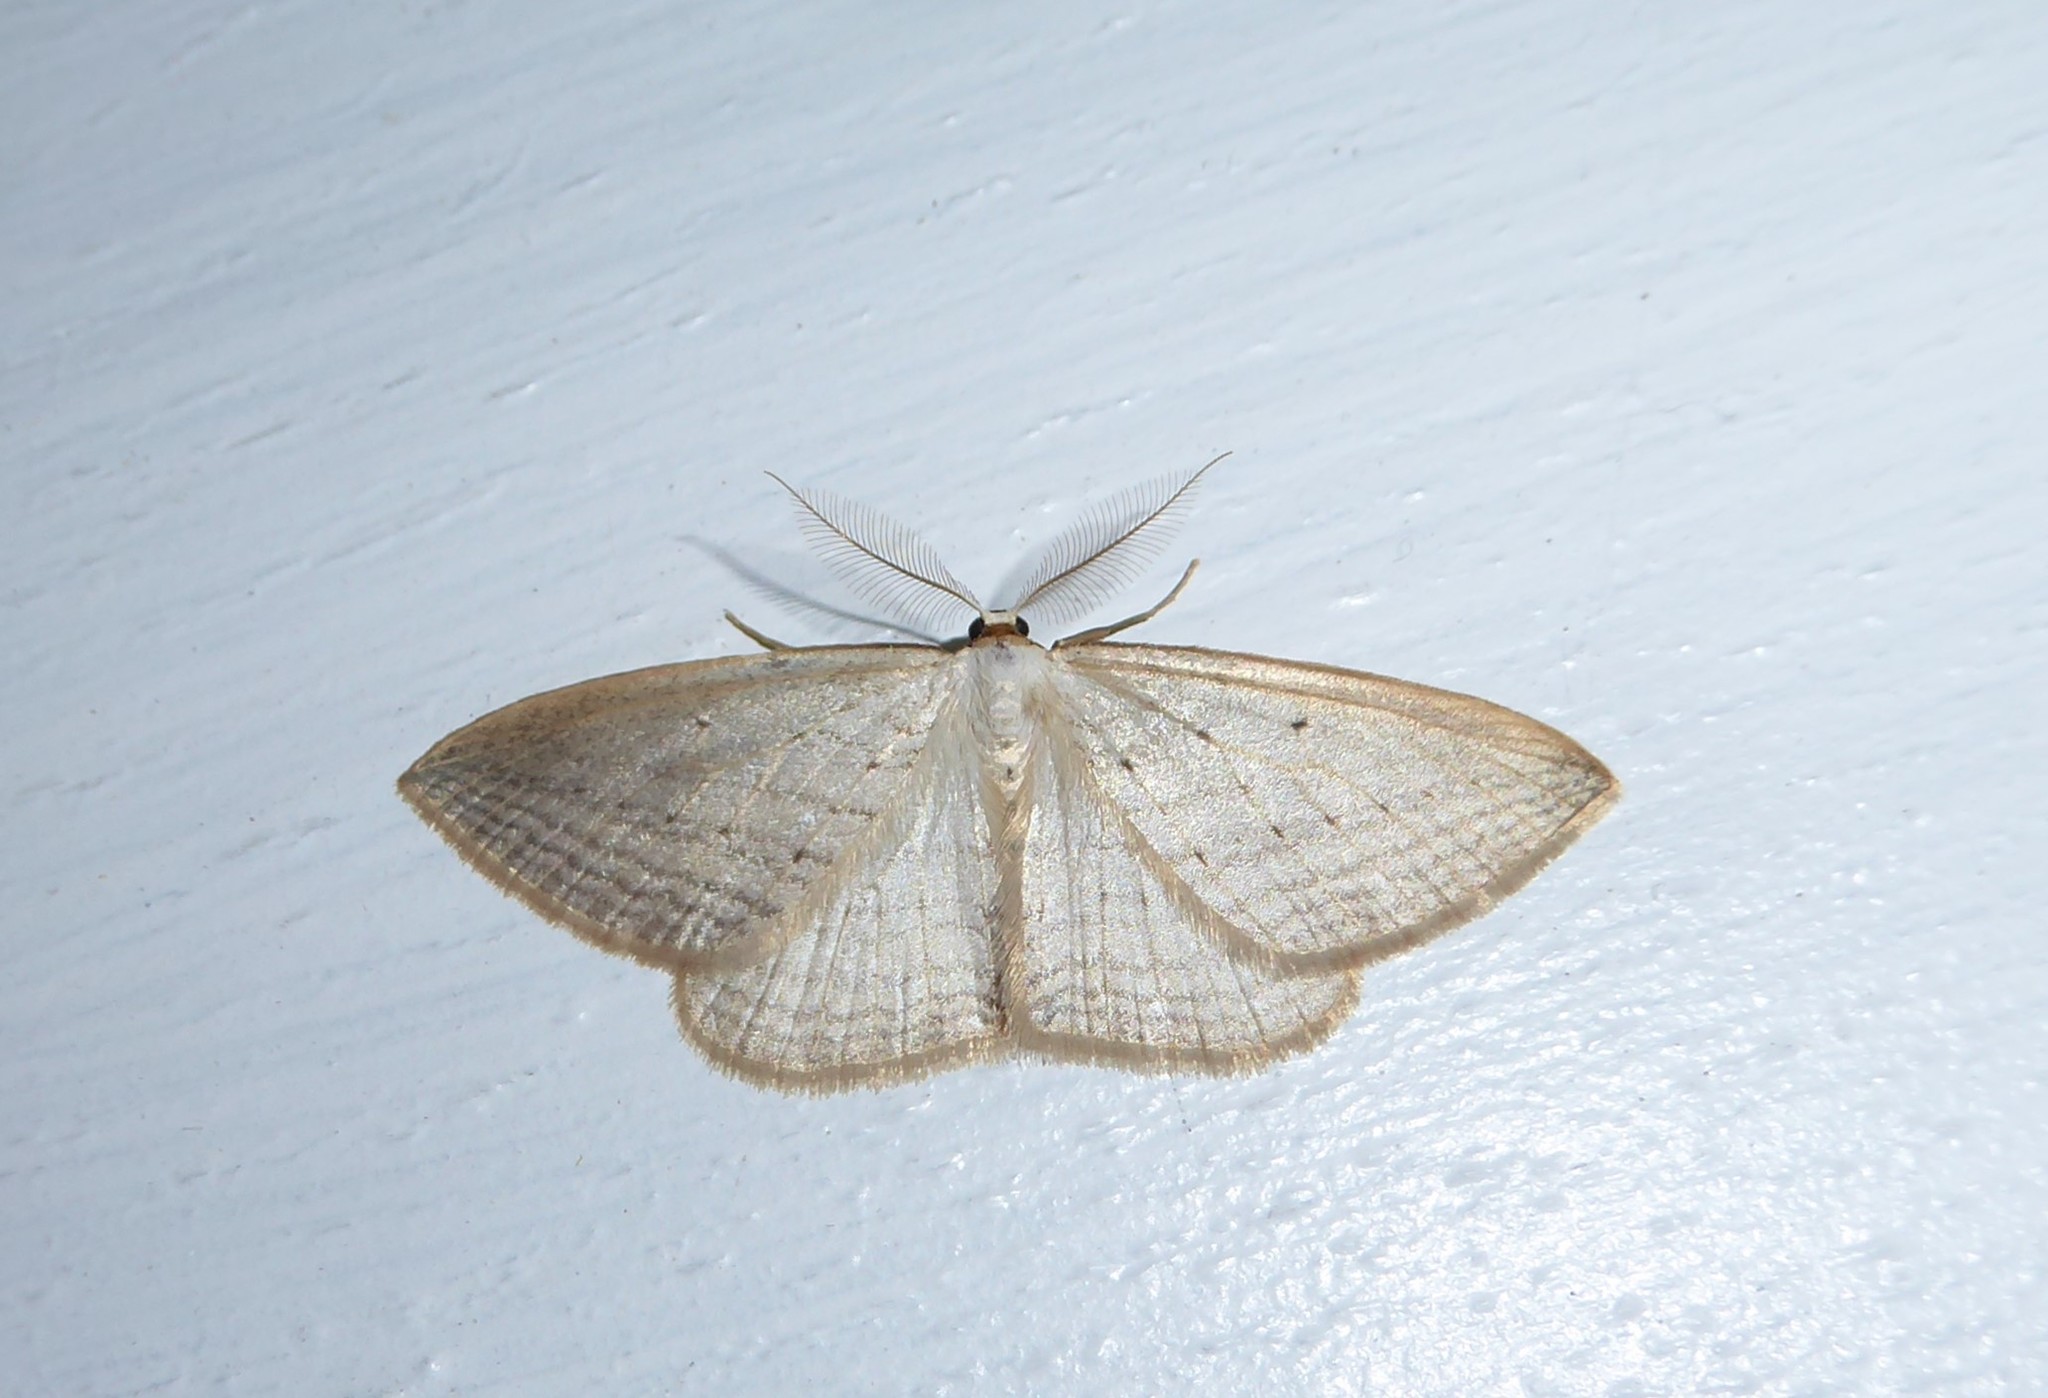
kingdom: Animalia
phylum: Arthropoda
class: Insecta
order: Lepidoptera
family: Geometridae
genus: Orthoclydon
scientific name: Orthoclydon praefectata
